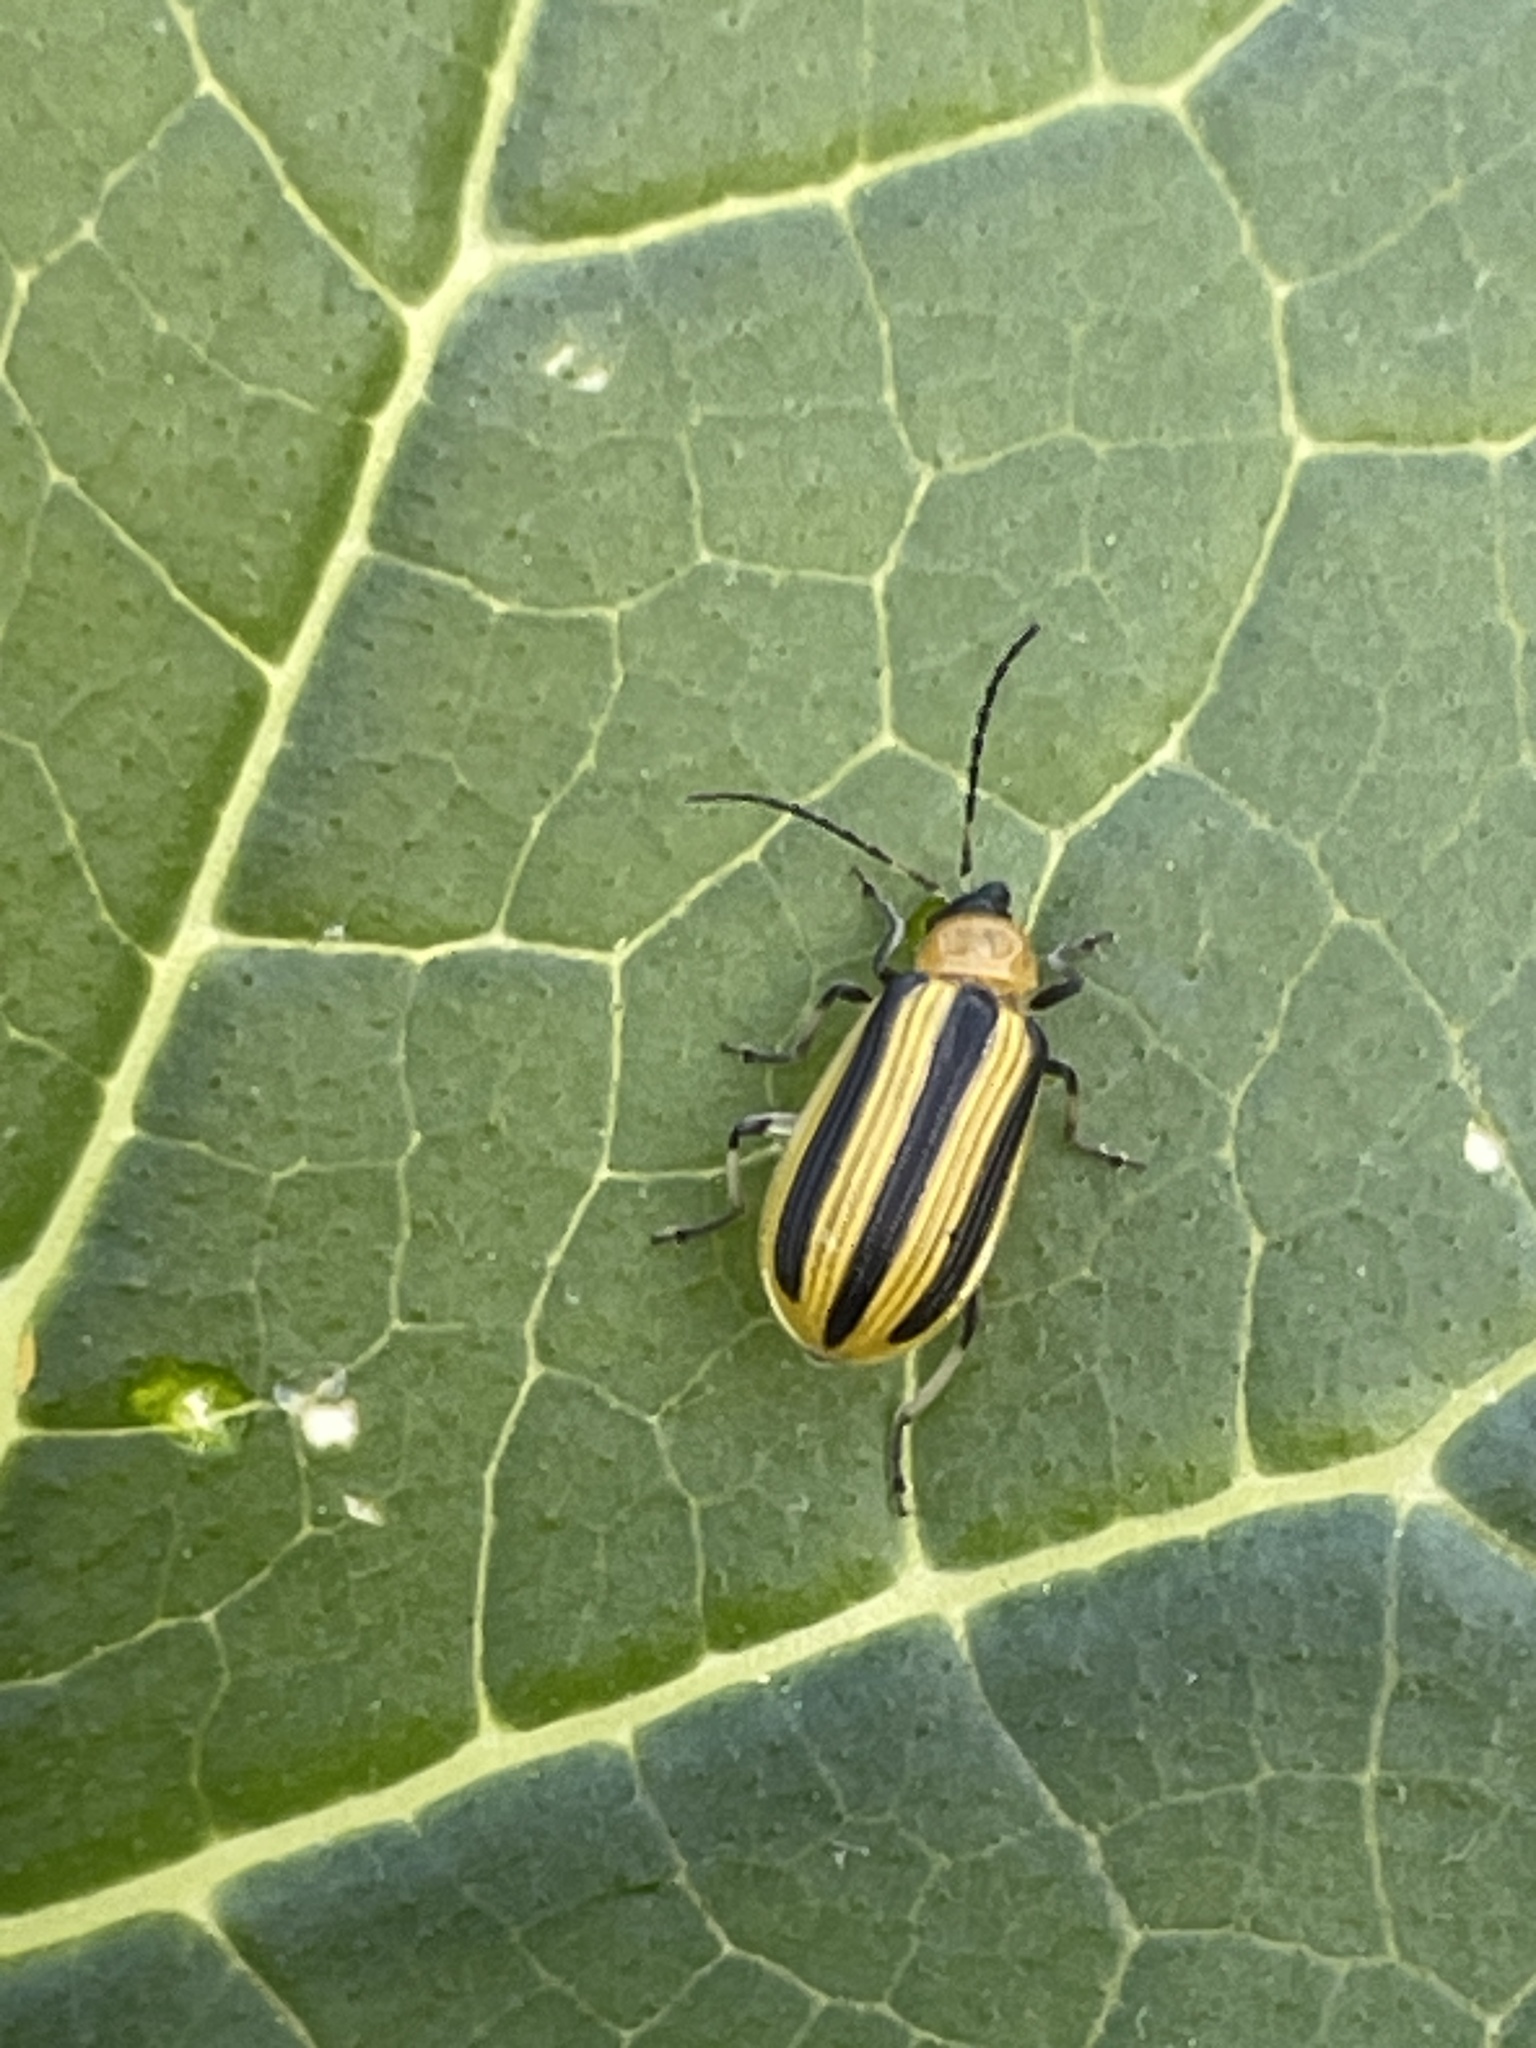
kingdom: Animalia
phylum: Arthropoda
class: Insecta
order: Coleoptera
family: Chrysomelidae
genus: Acalymma
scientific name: Acalymma vittatum
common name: Striped cucumber beetle
